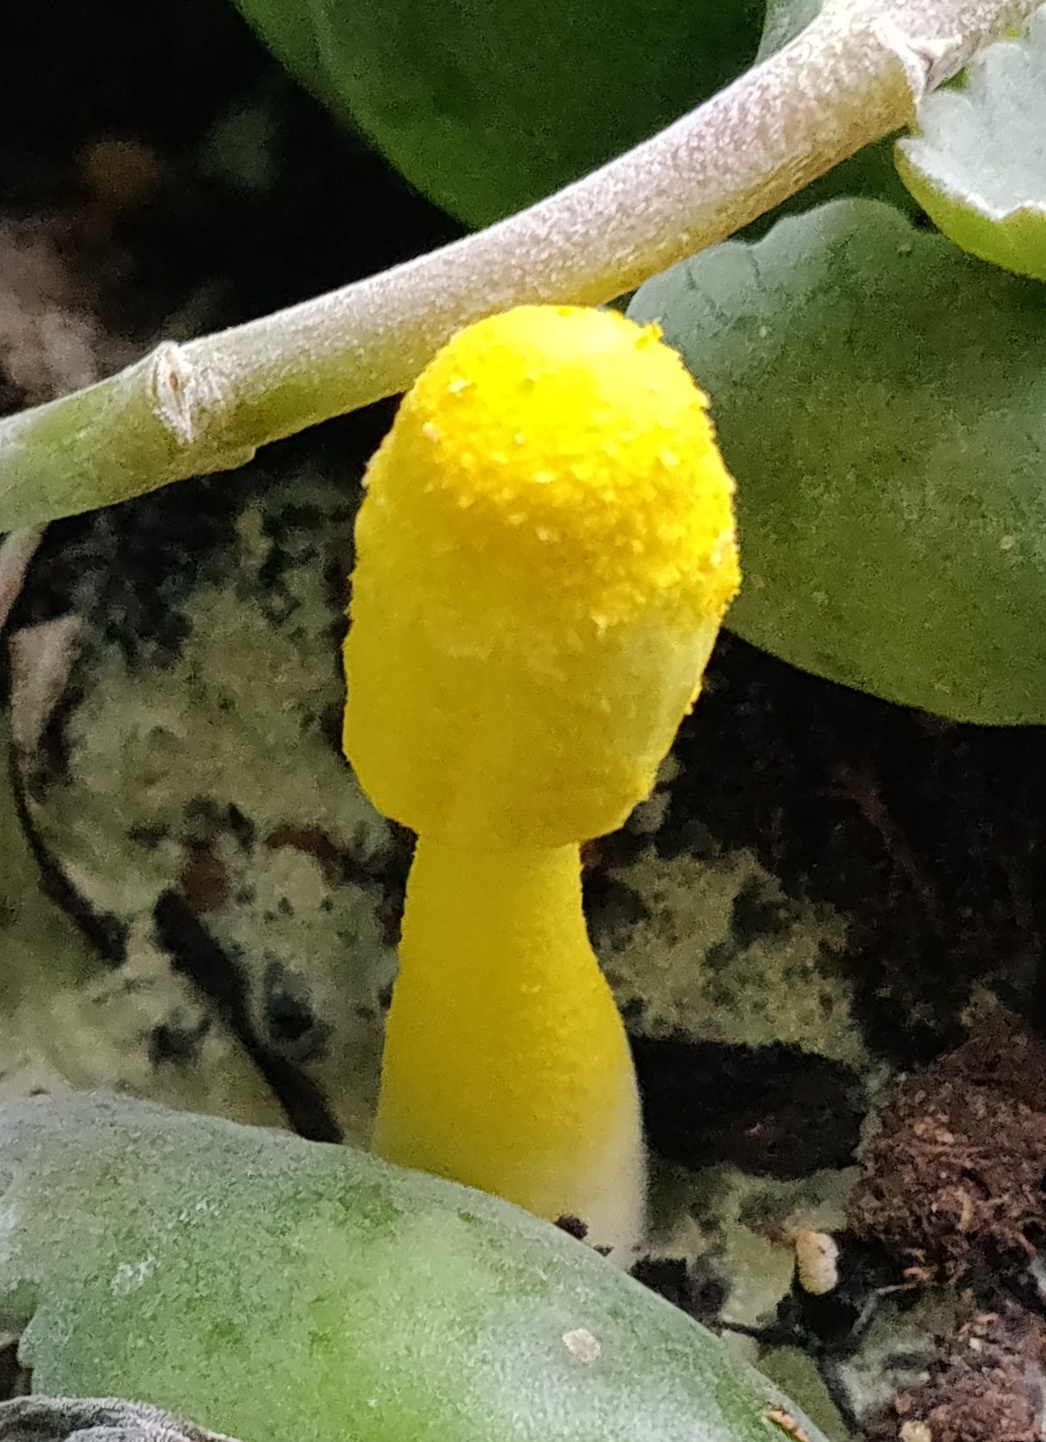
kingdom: Fungi
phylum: Basidiomycota
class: Agaricomycetes
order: Agaricales
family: Agaricaceae
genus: Leucocoprinus
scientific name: Leucocoprinus birnbaumii
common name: Plantpot dapperling
